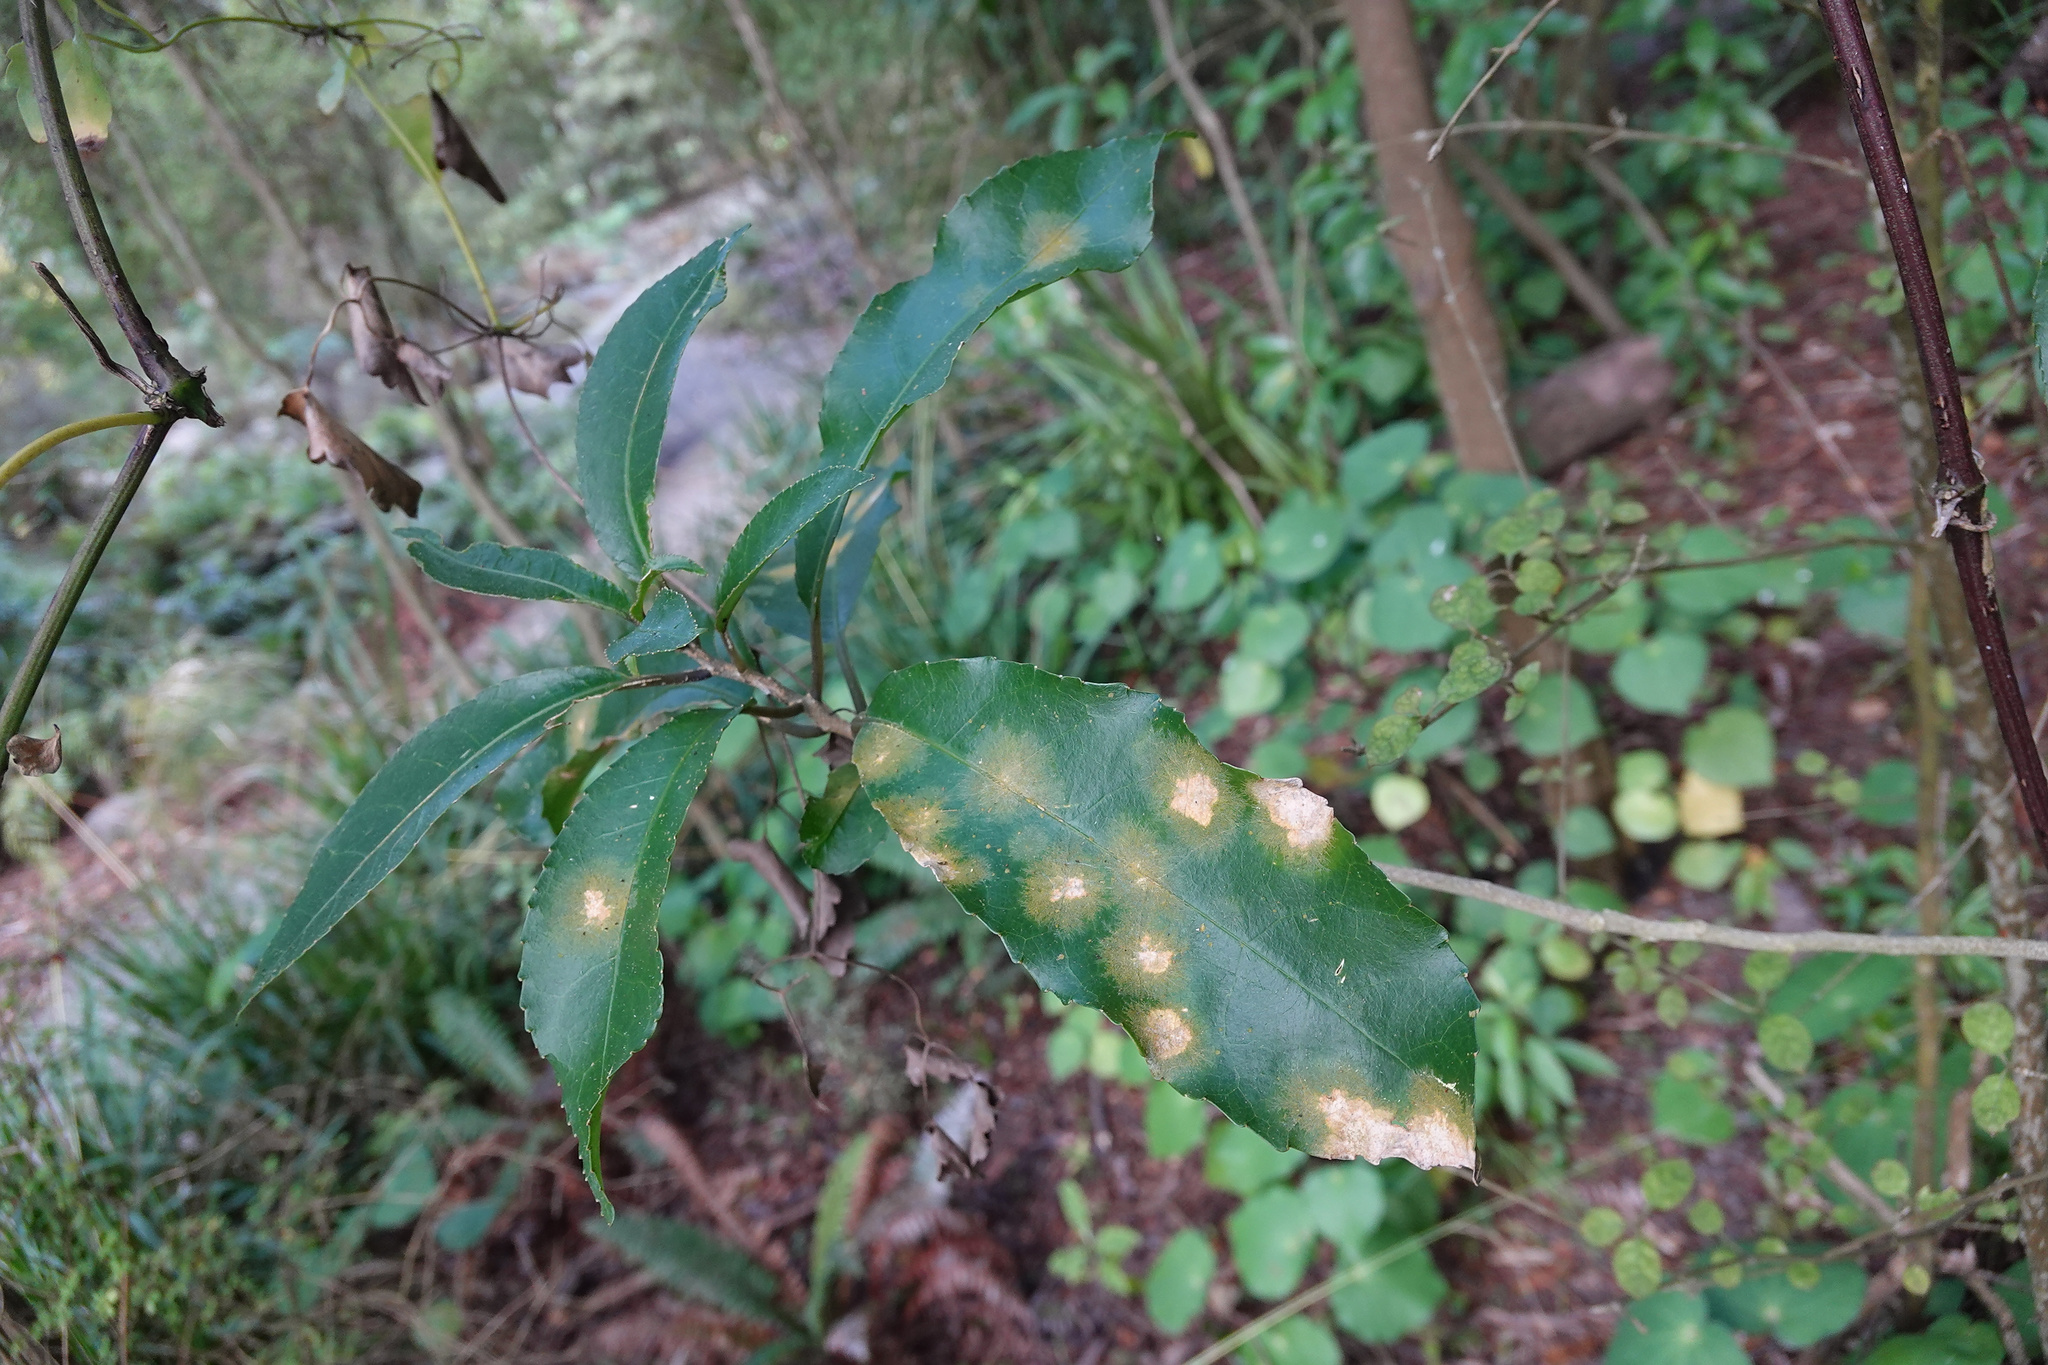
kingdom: Plantae
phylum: Chlorophyta
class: Ulvophyceae
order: Trentepohliales
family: Trentepohliaceae
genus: Cephaleuros
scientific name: Cephaleuros
